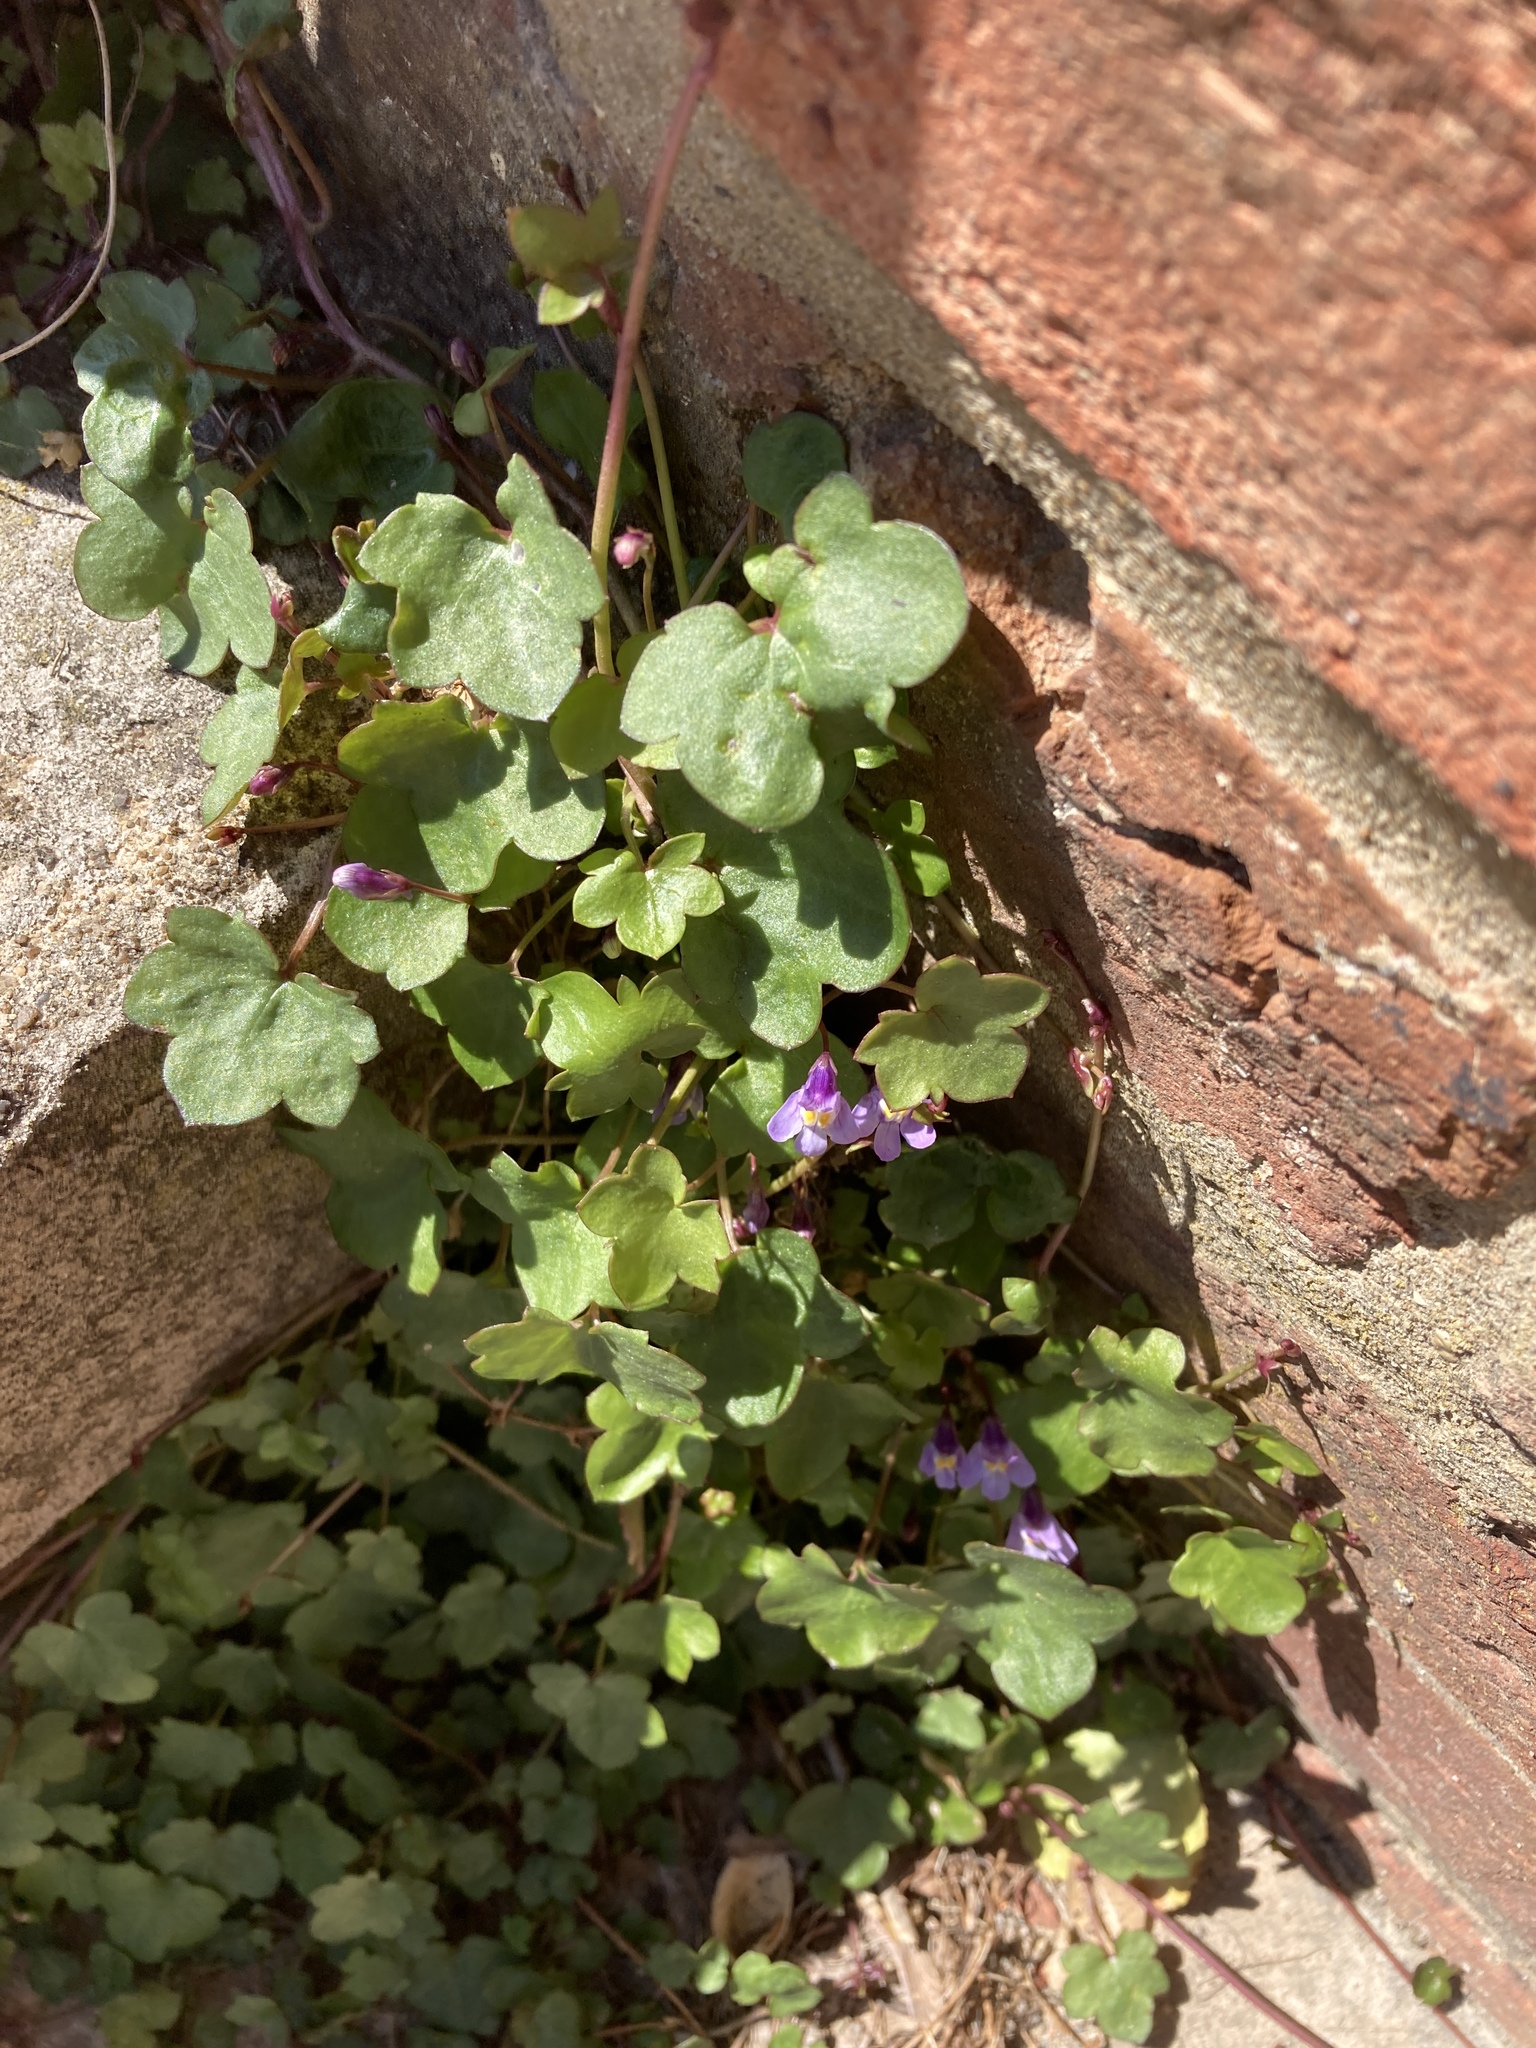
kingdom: Plantae
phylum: Tracheophyta
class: Magnoliopsida
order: Lamiales
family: Plantaginaceae
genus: Cymbalaria
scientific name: Cymbalaria muralis
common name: Ivy-leaved toadflax
